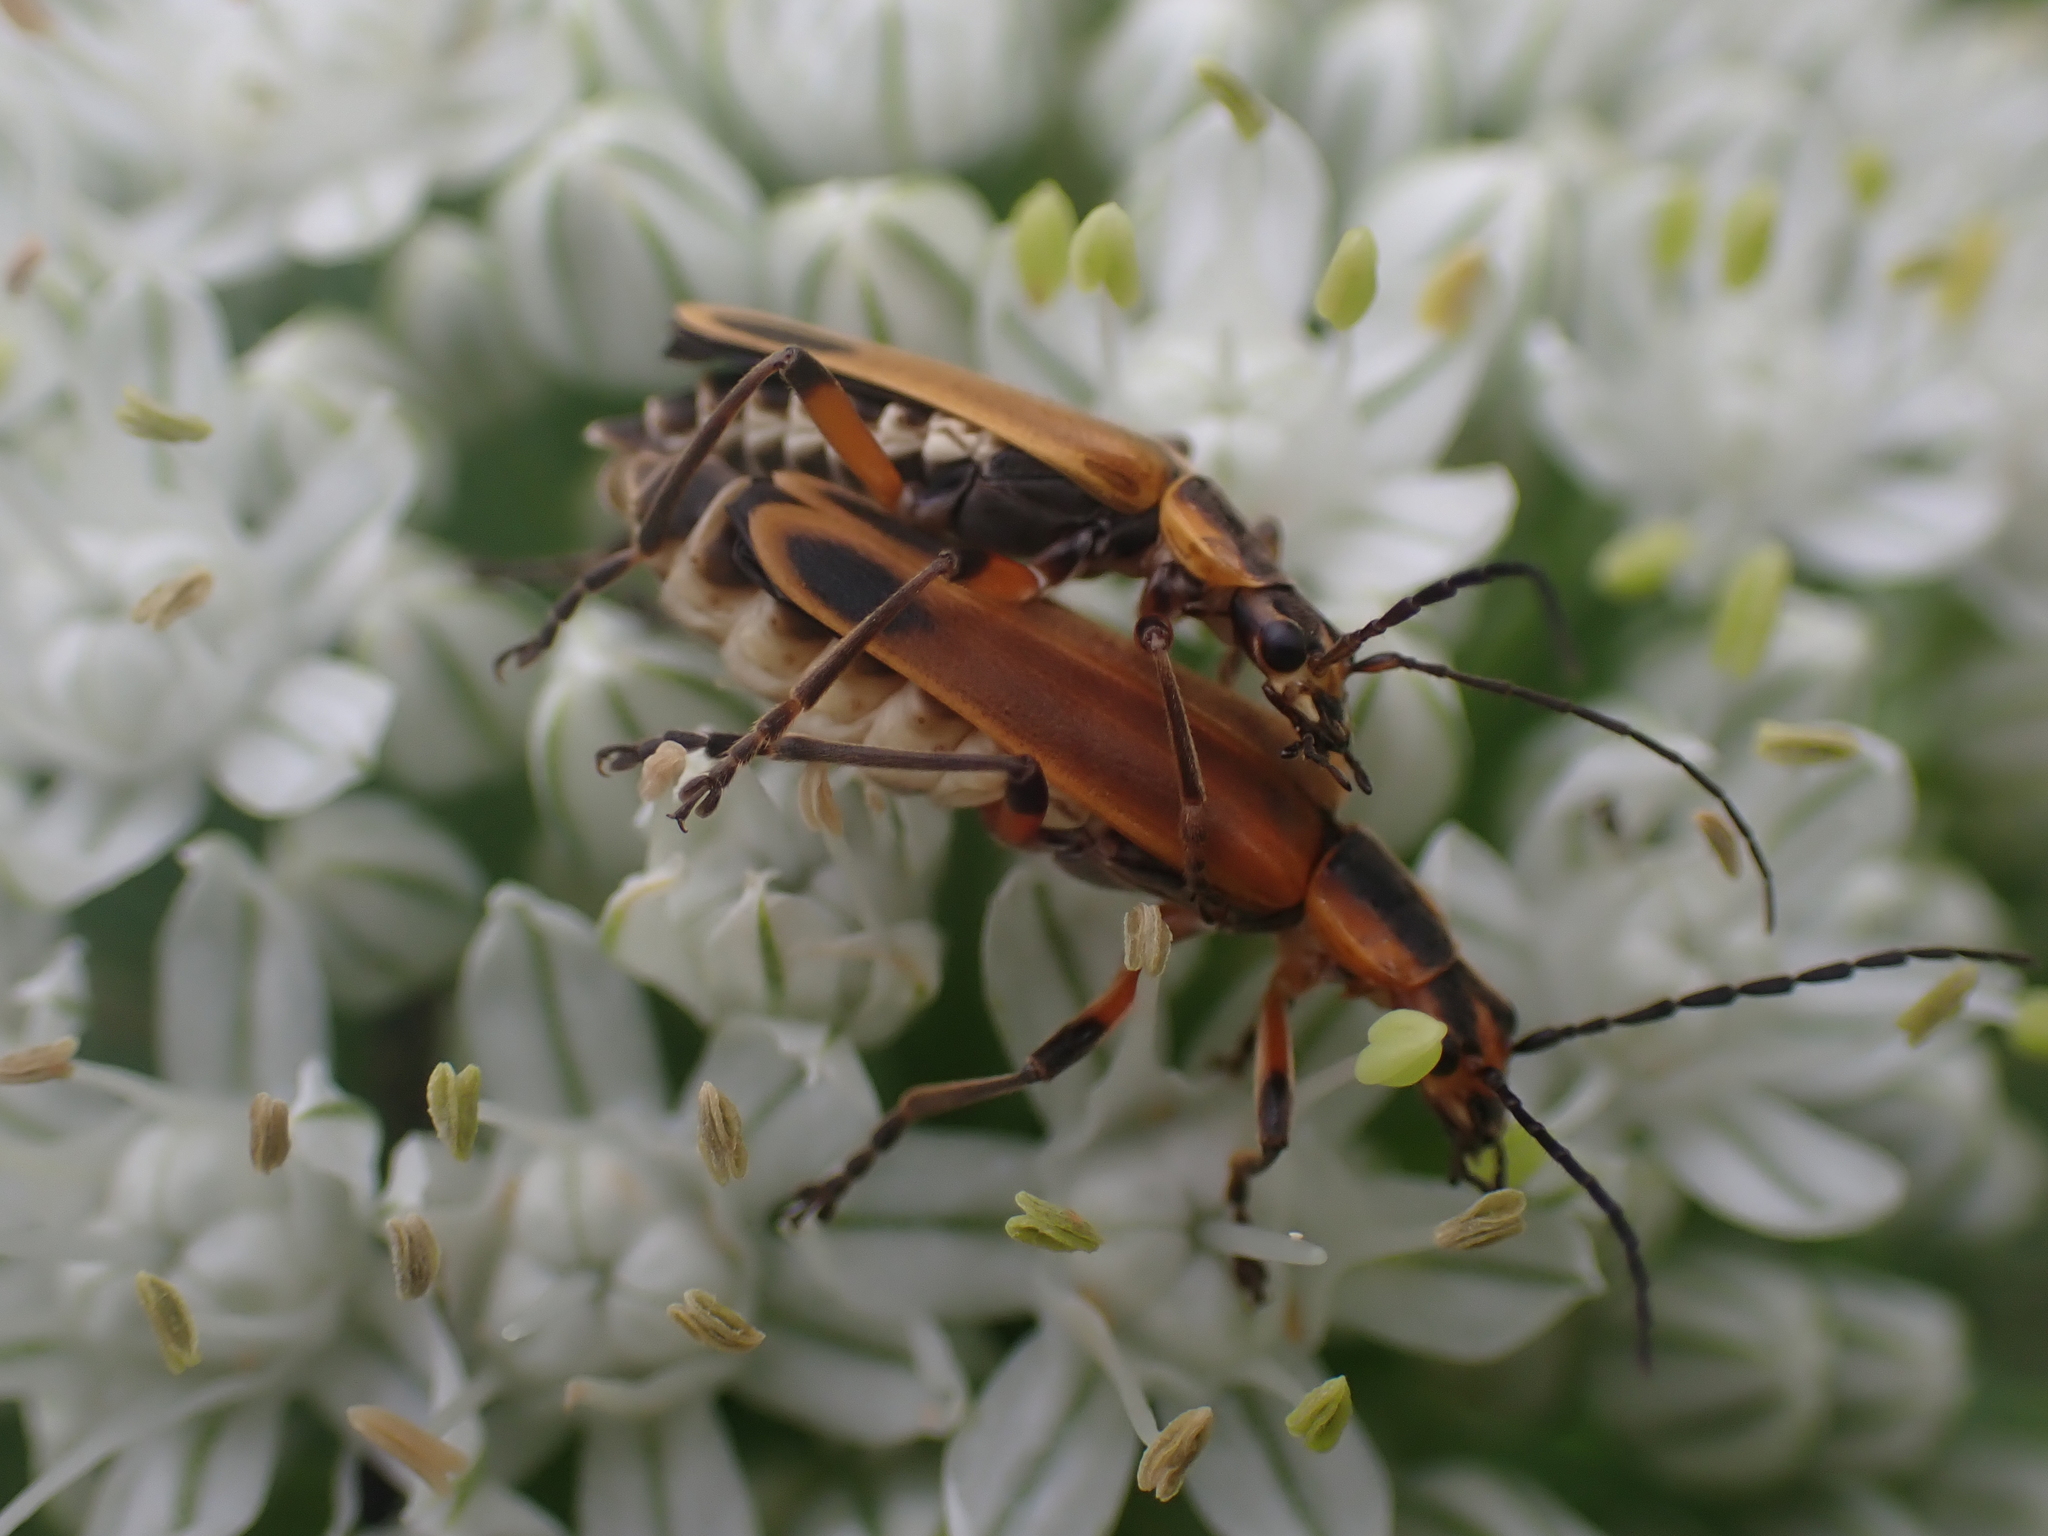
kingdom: Animalia
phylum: Arthropoda
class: Insecta
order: Coleoptera
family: Cantharidae
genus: Chauliognathus
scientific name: Chauliognathus marginatus
